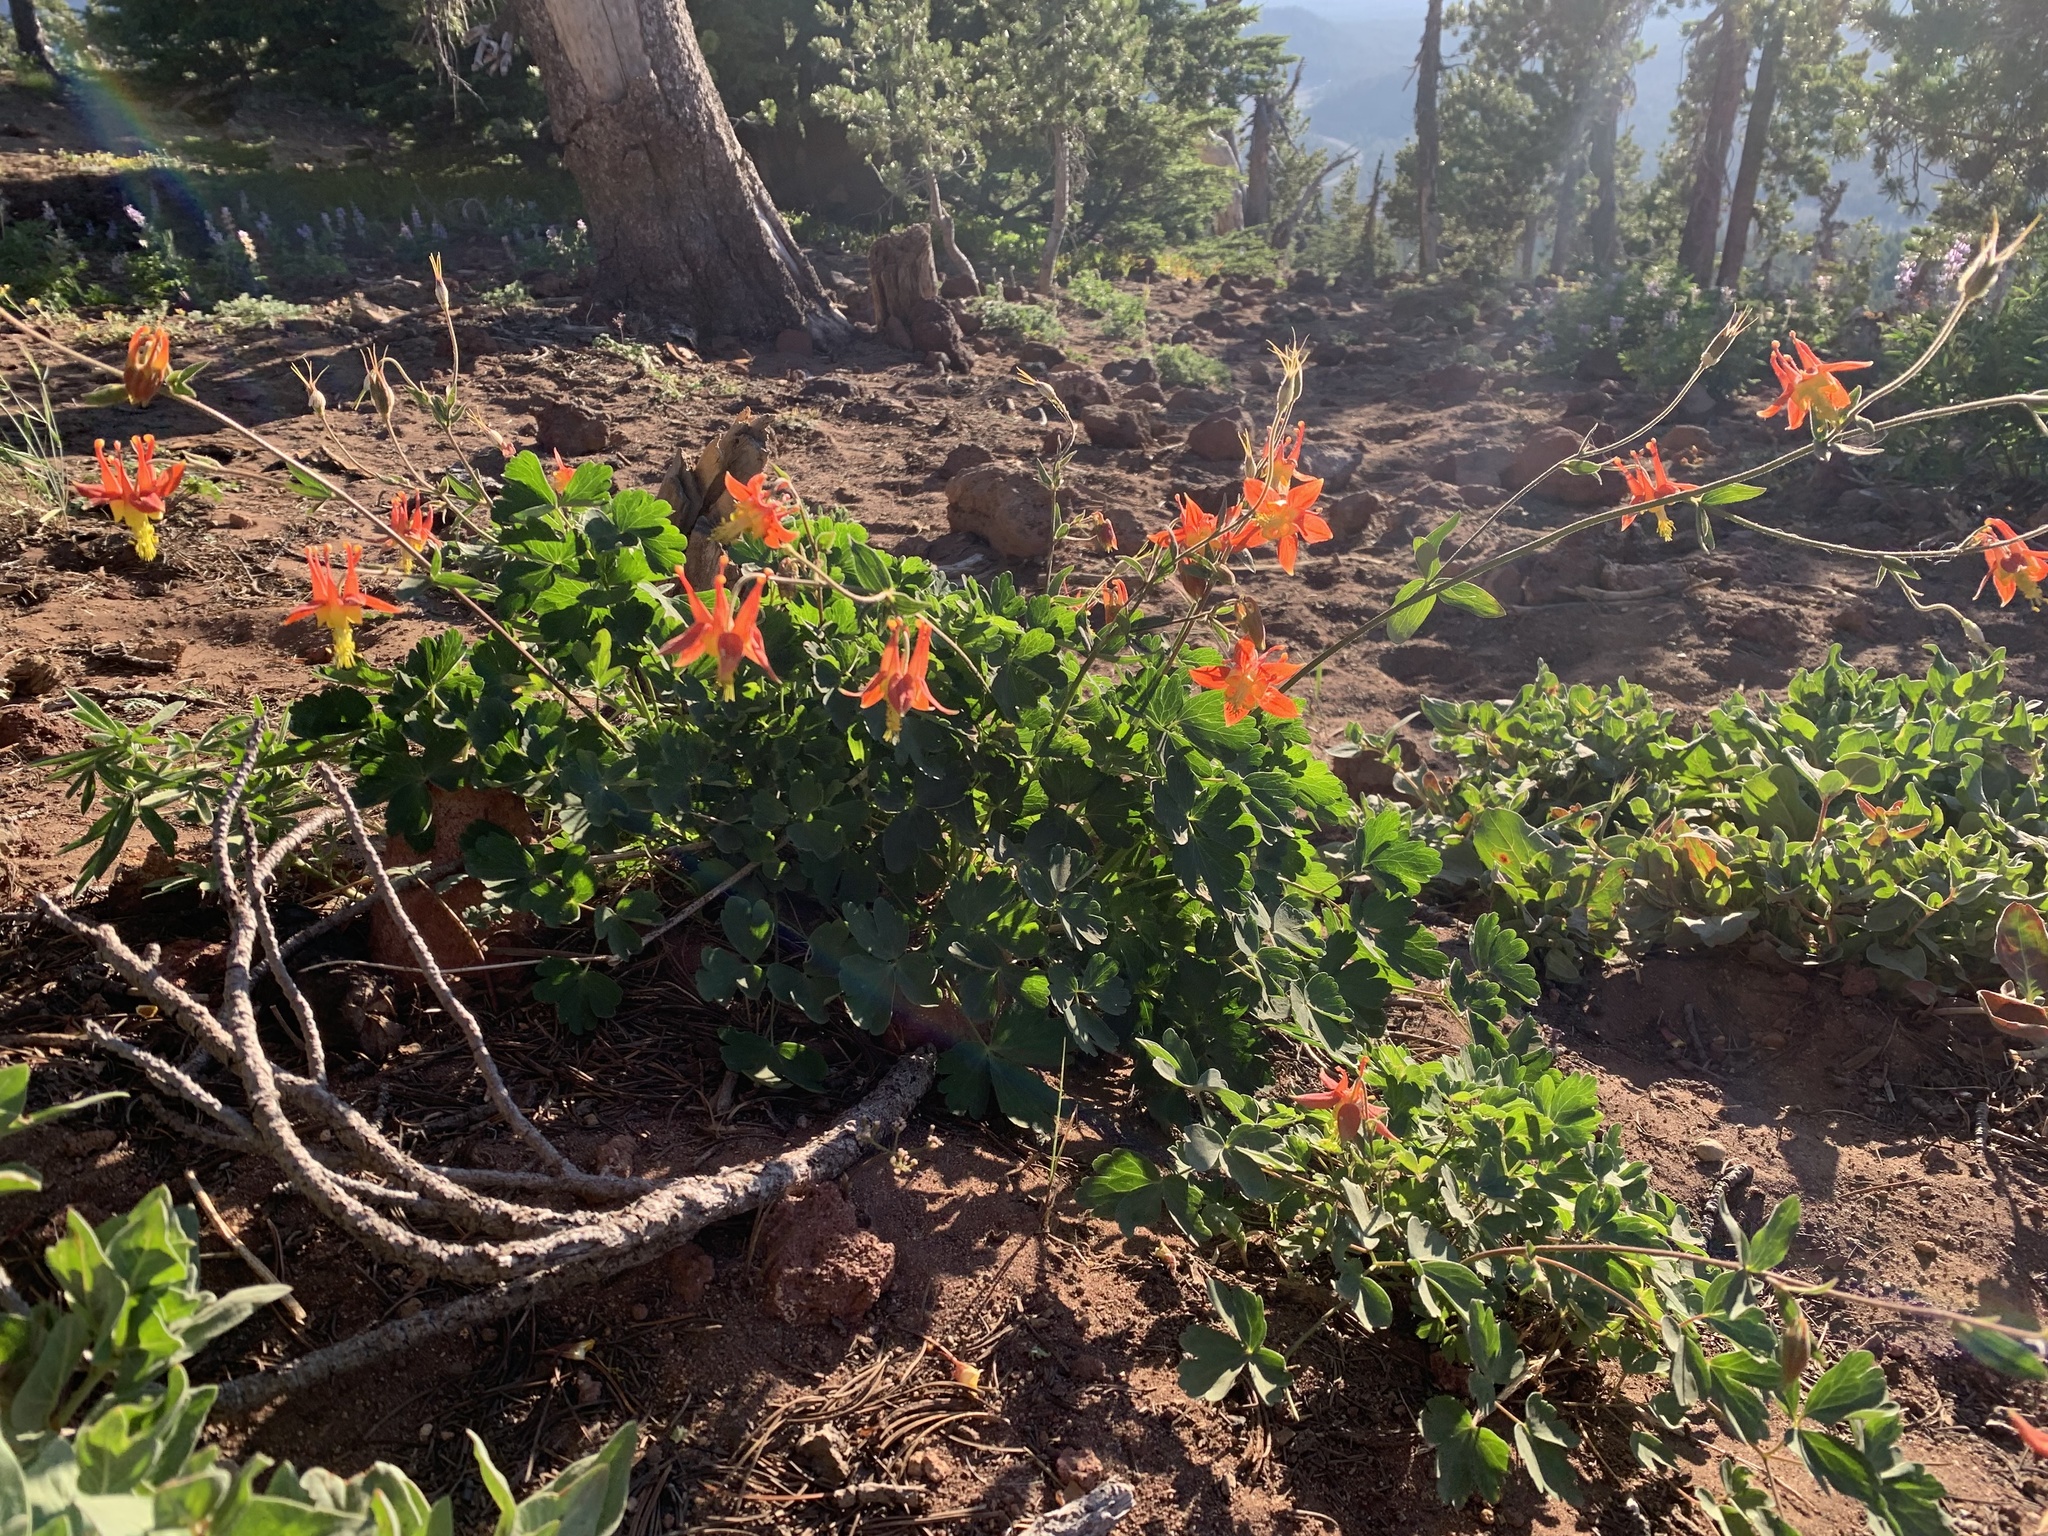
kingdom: Plantae
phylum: Tracheophyta
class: Magnoliopsida
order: Ranunculales
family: Ranunculaceae
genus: Aquilegia
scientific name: Aquilegia formosa
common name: Sitka columbine
